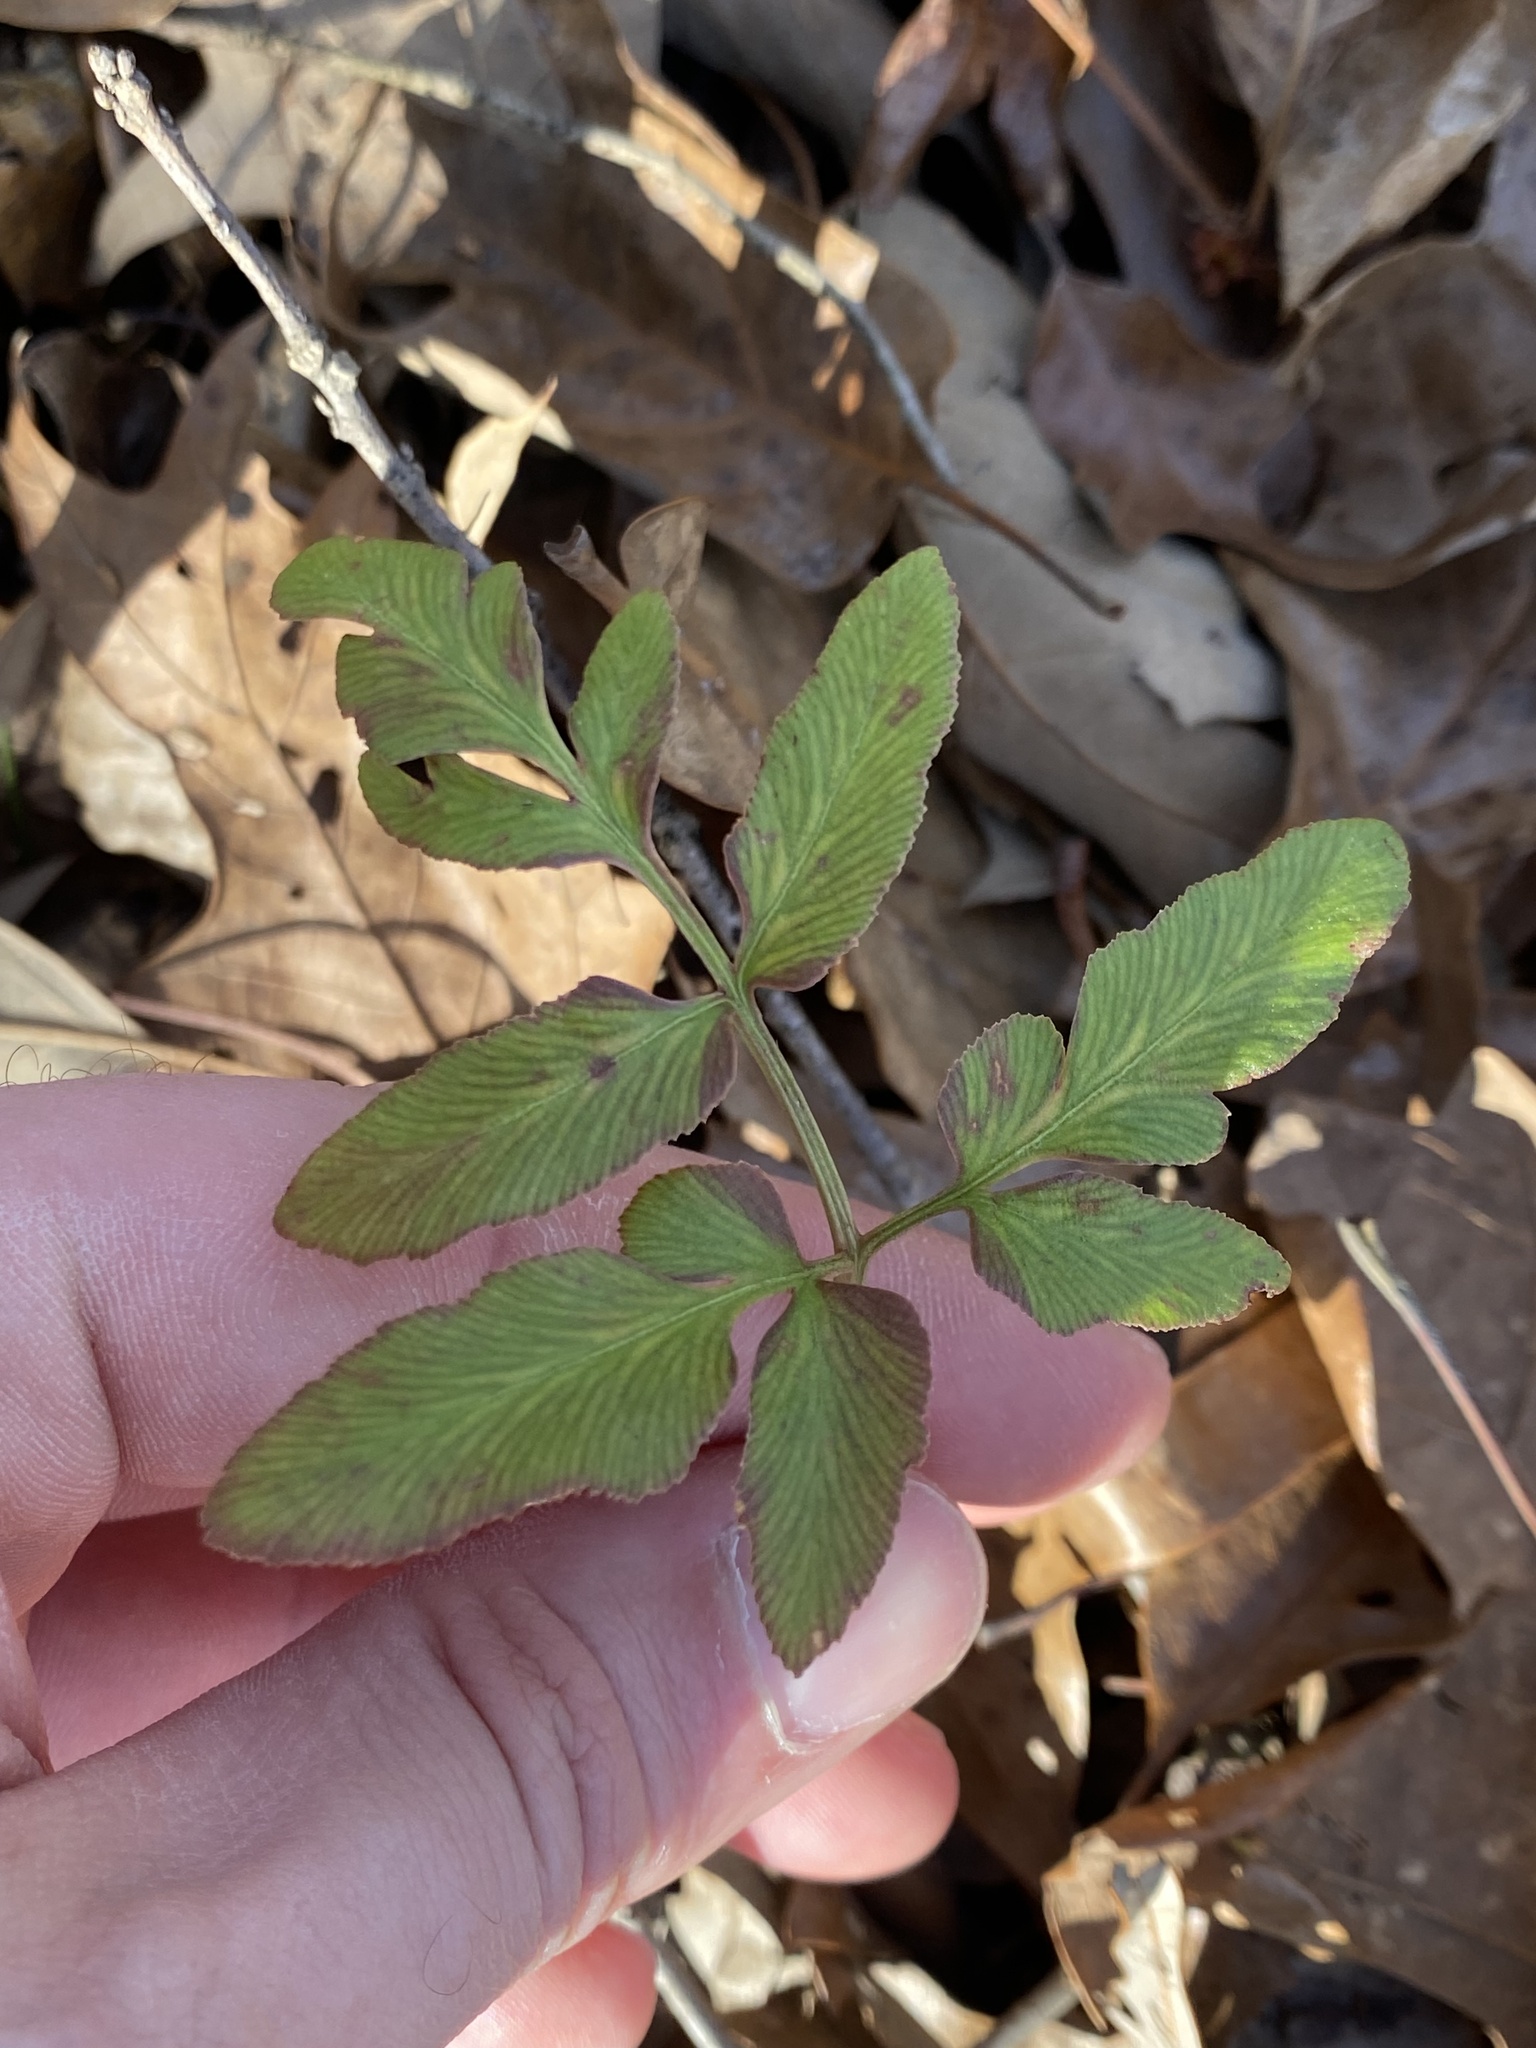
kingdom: Plantae
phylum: Tracheophyta
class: Polypodiopsida
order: Ophioglossales
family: Ophioglossaceae
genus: Sceptridium
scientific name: Sceptridium dissectum
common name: Cut-leaved grapefern
